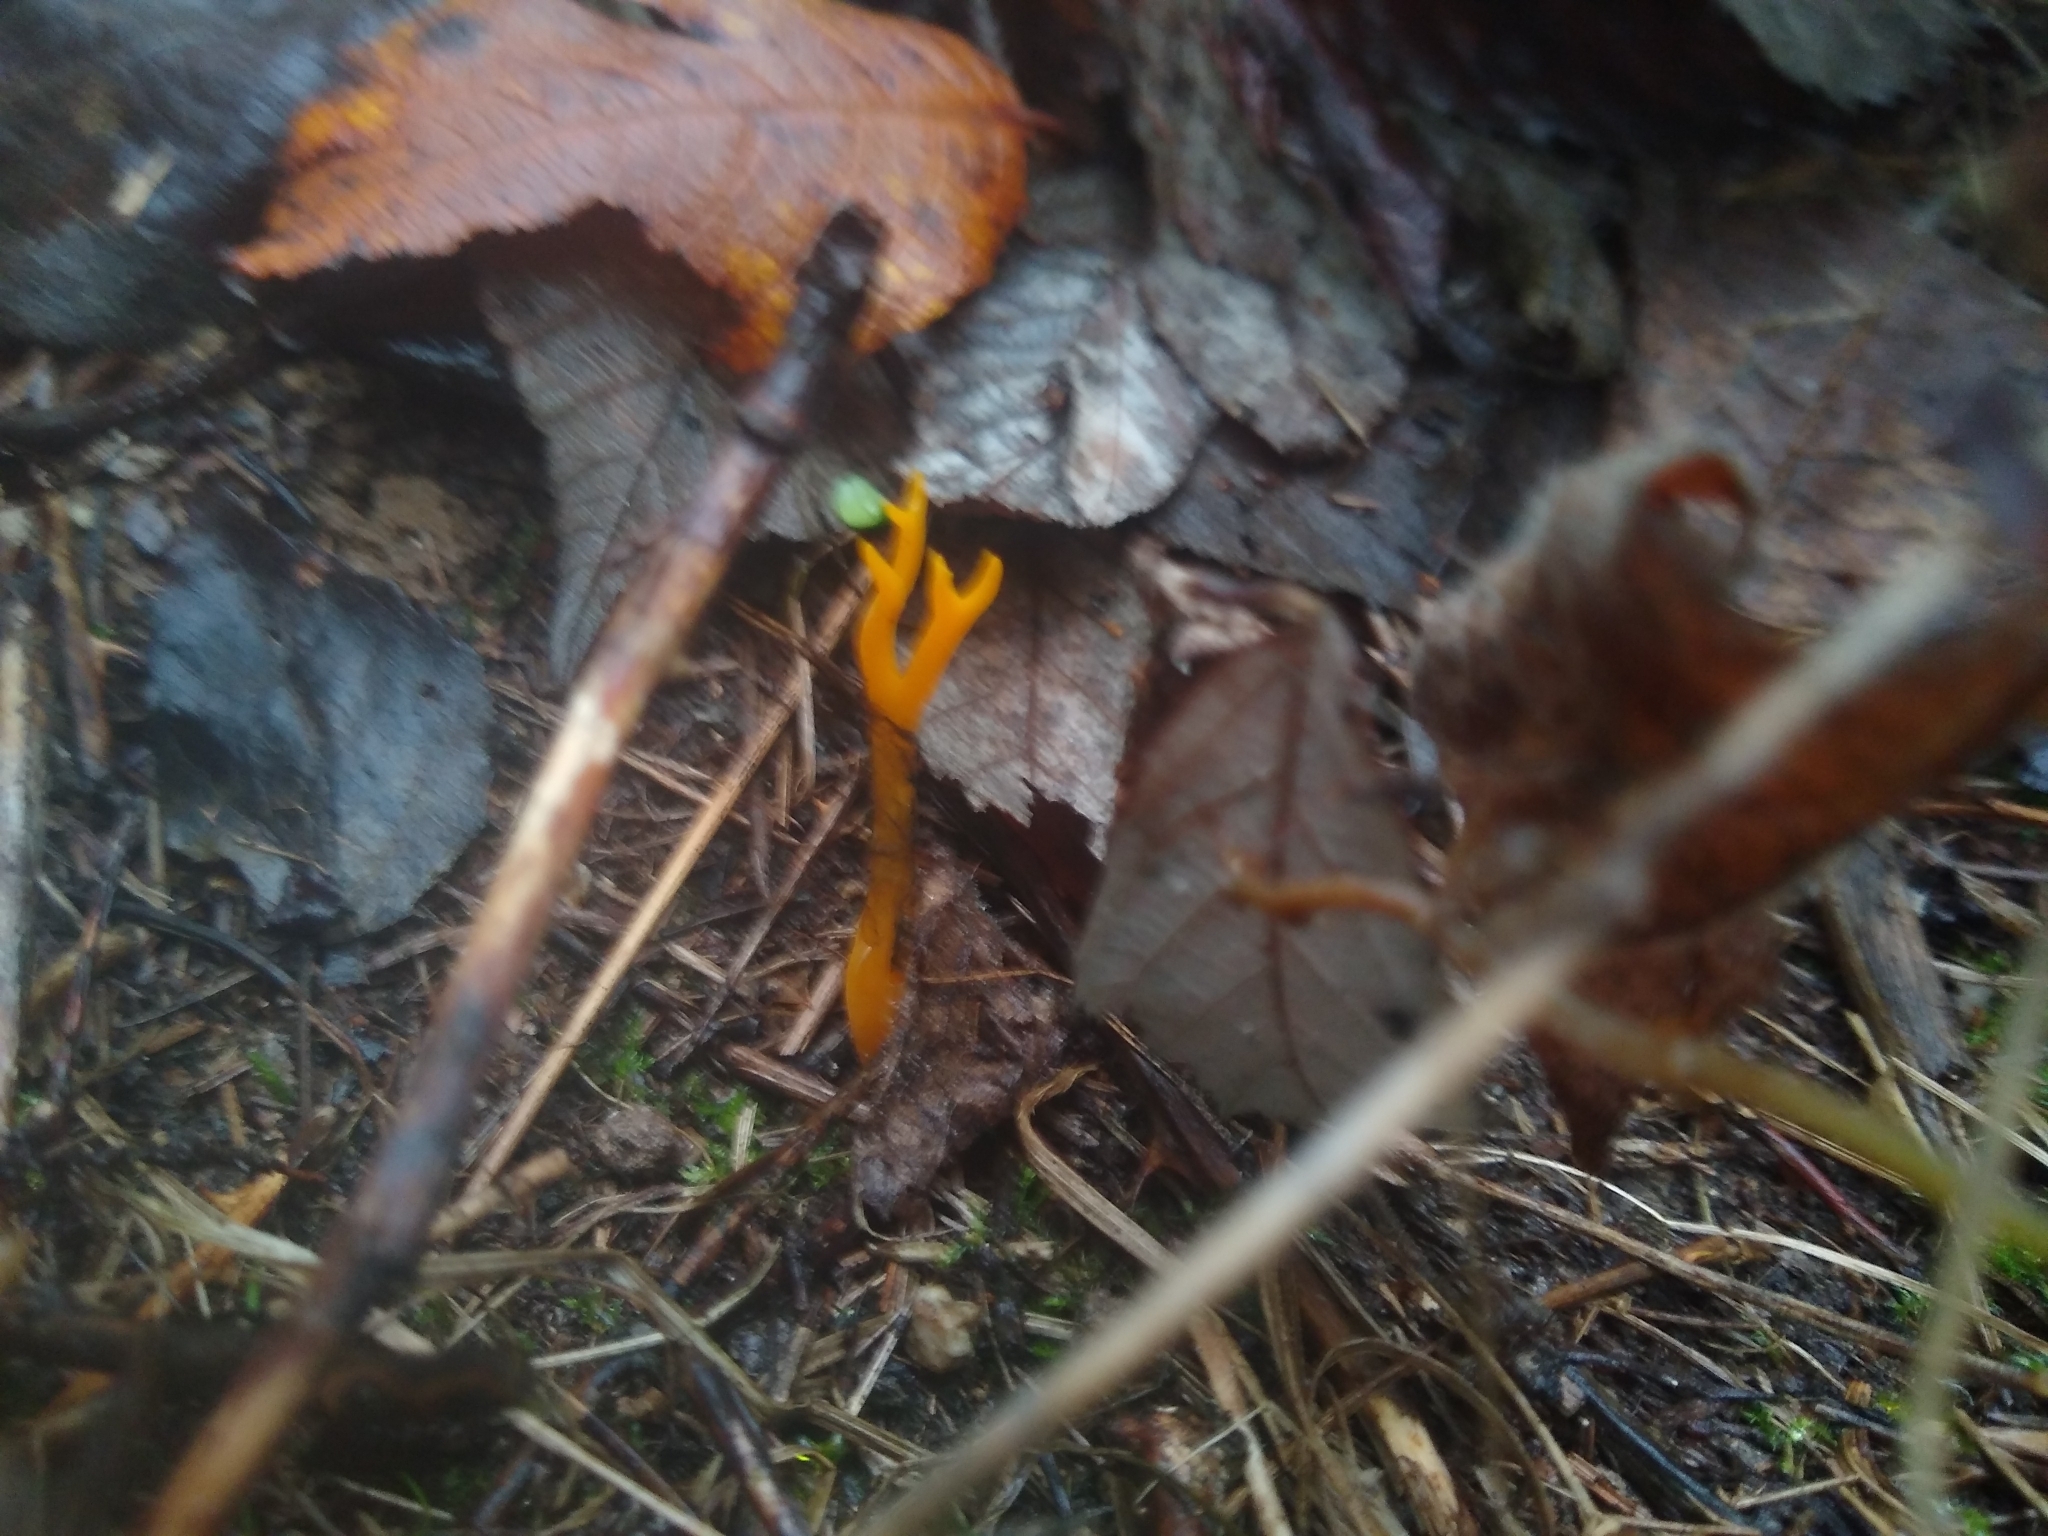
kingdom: Fungi
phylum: Basidiomycota
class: Dacrymycetes
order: Dacrymycetales
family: Dacrymycetaceae
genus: Calocera
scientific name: Calocera viscosa
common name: Yellow stagshorn
